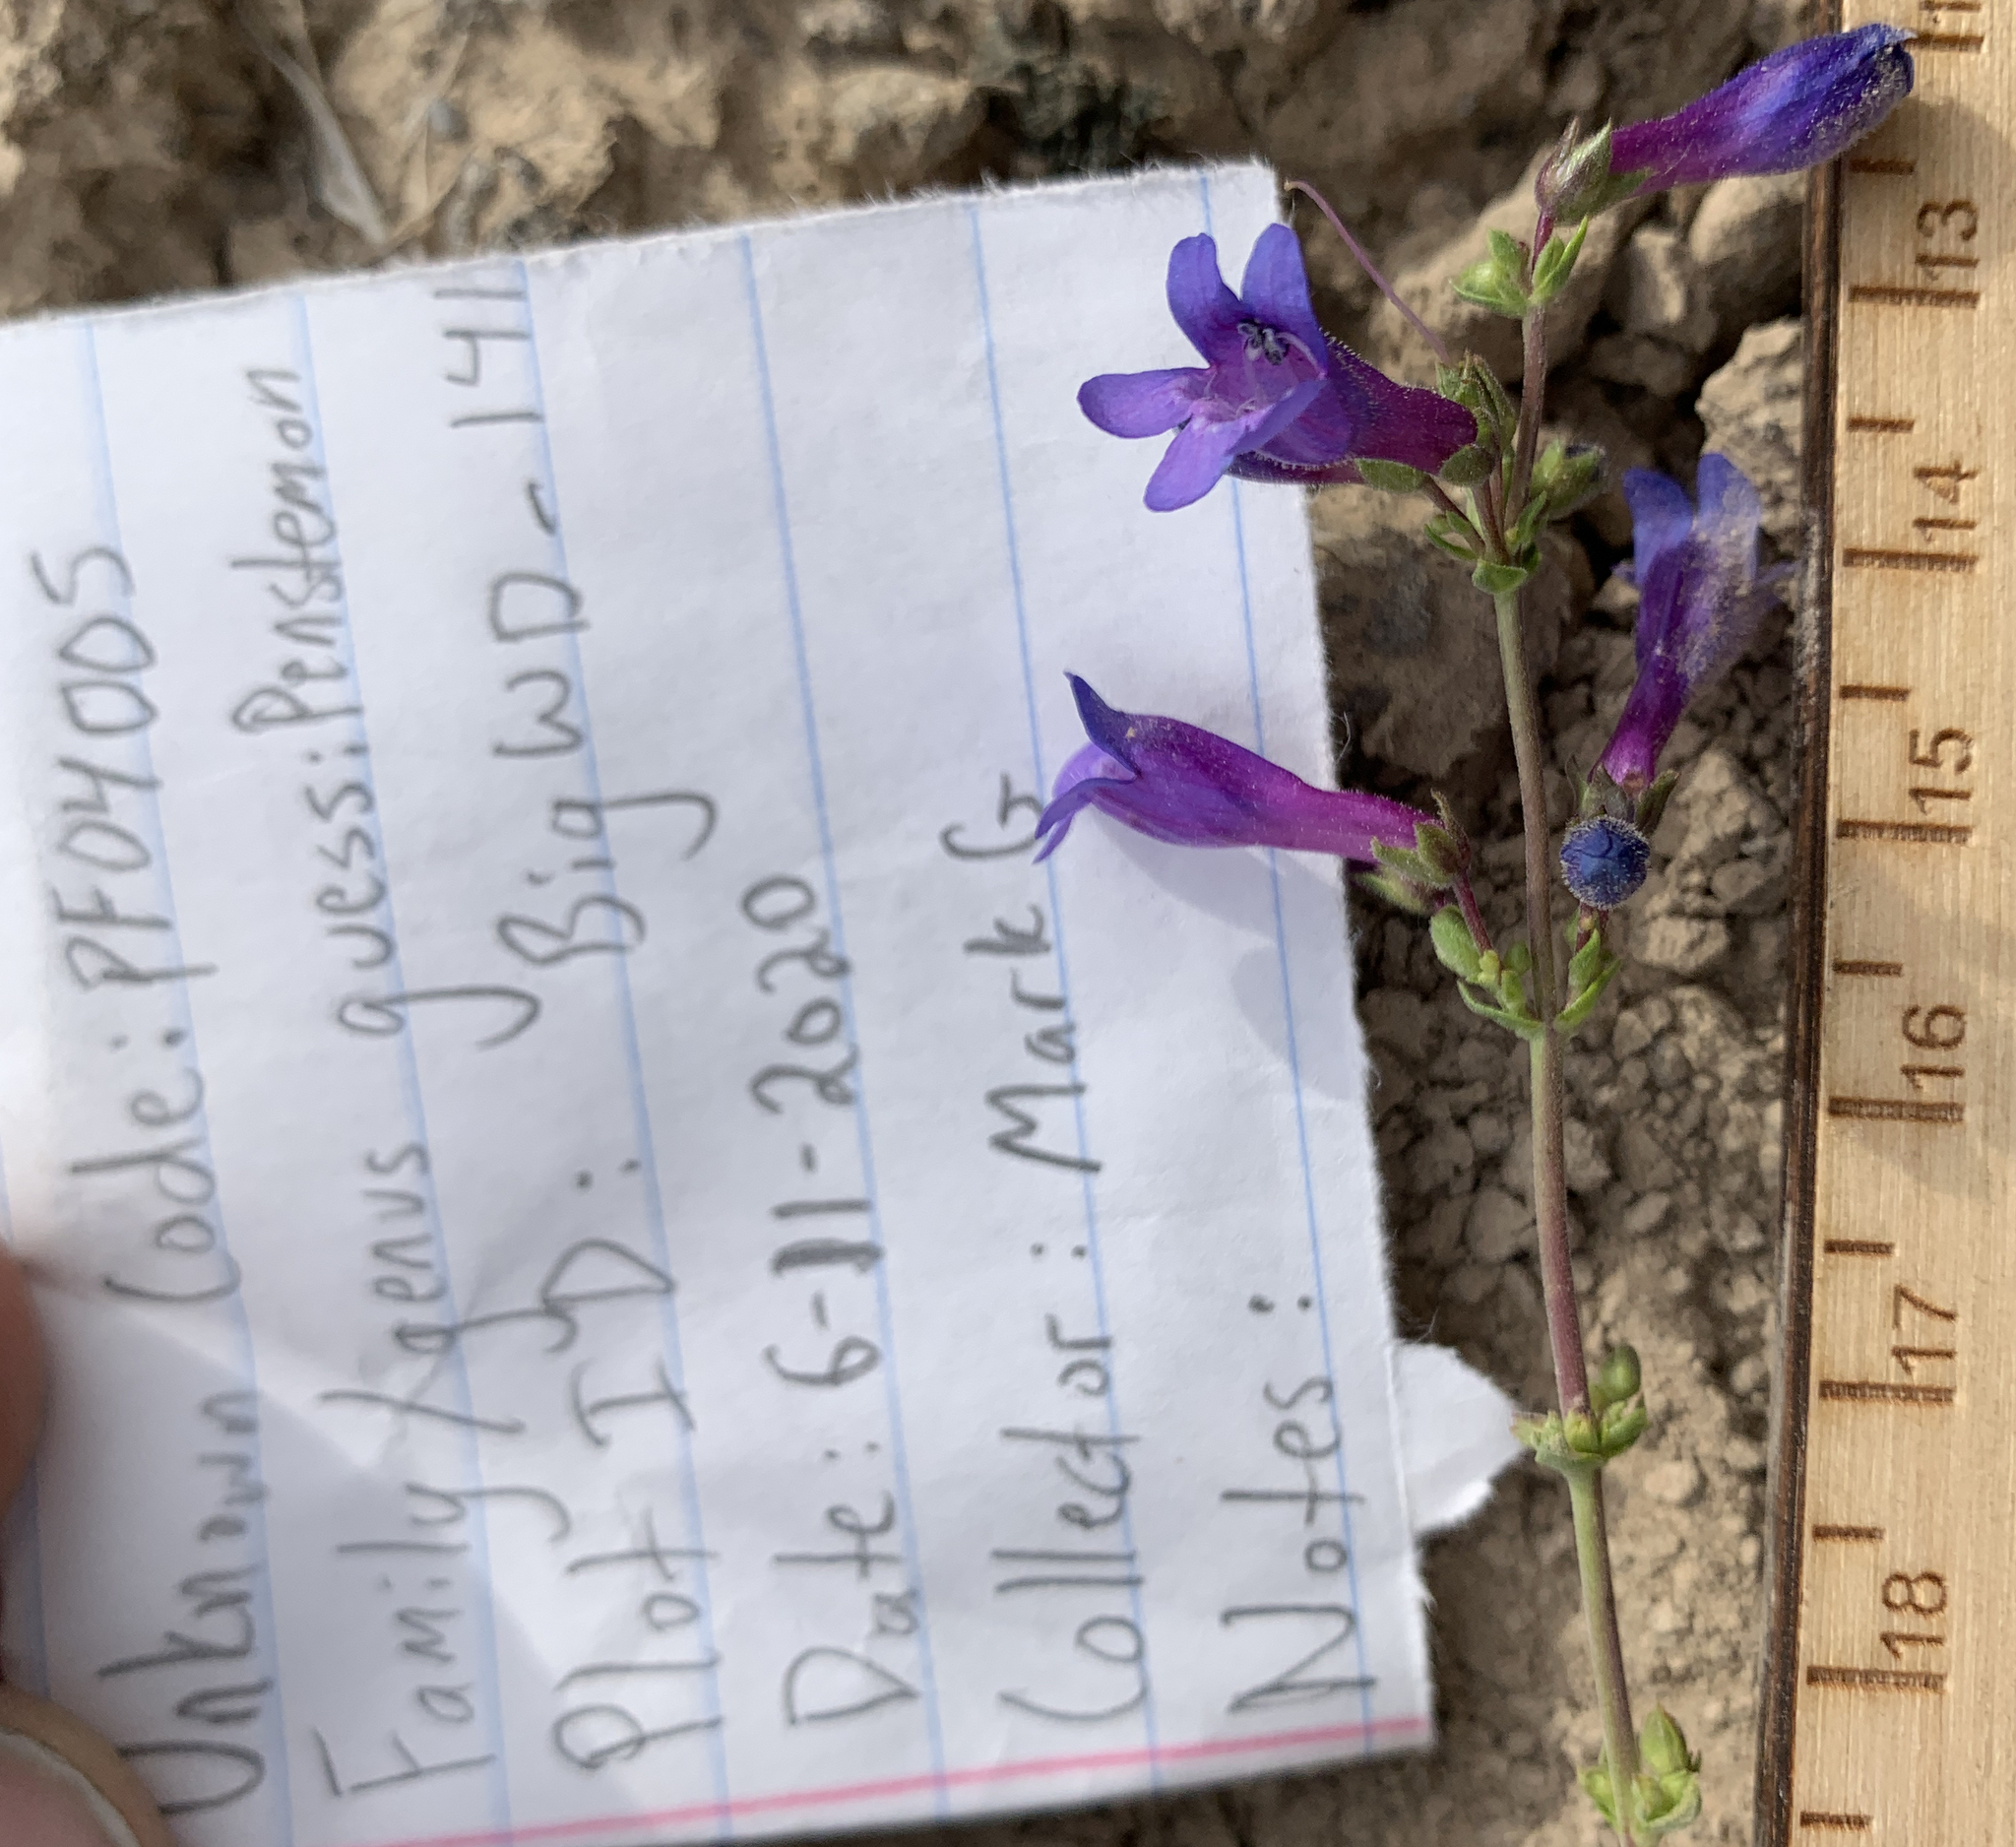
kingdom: Plantae
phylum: Tracheophyta
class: Magnoliopsida
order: Lamiales
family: Plantaginaceae
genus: Penstemon
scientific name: Penstemon humilis
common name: Low penstemon
